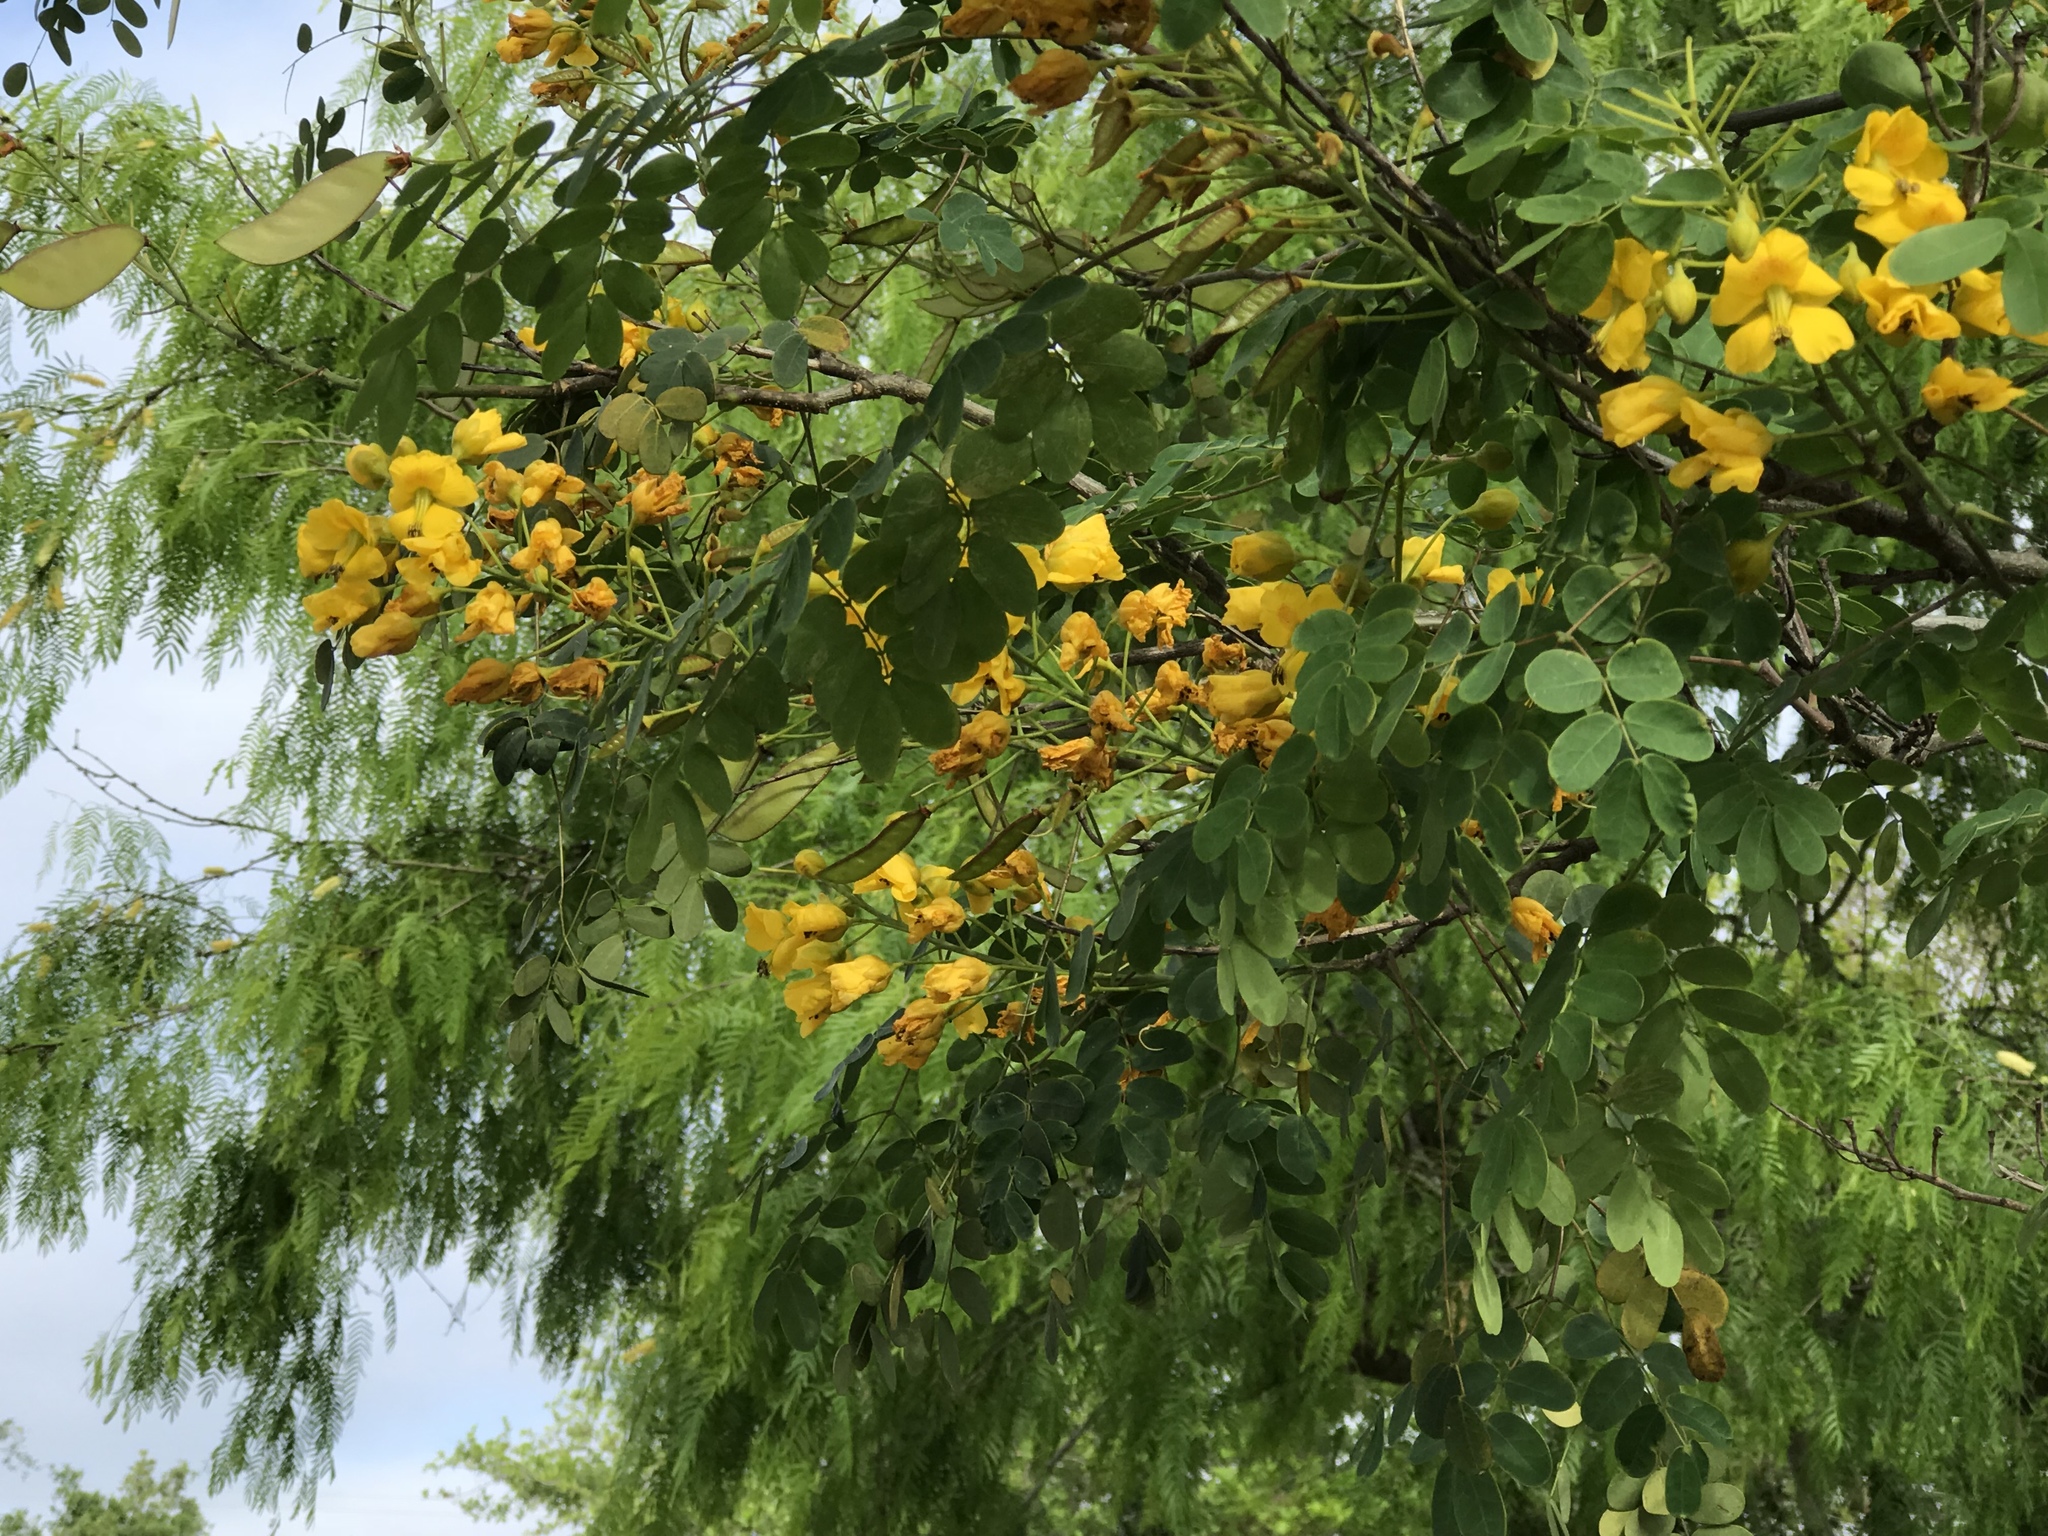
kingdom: Plantae
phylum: Tracheophyta
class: Magnoliopsida
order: Fabales
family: Fabaceae
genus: Erythrostemon
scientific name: Erythrostemon mexicanus
